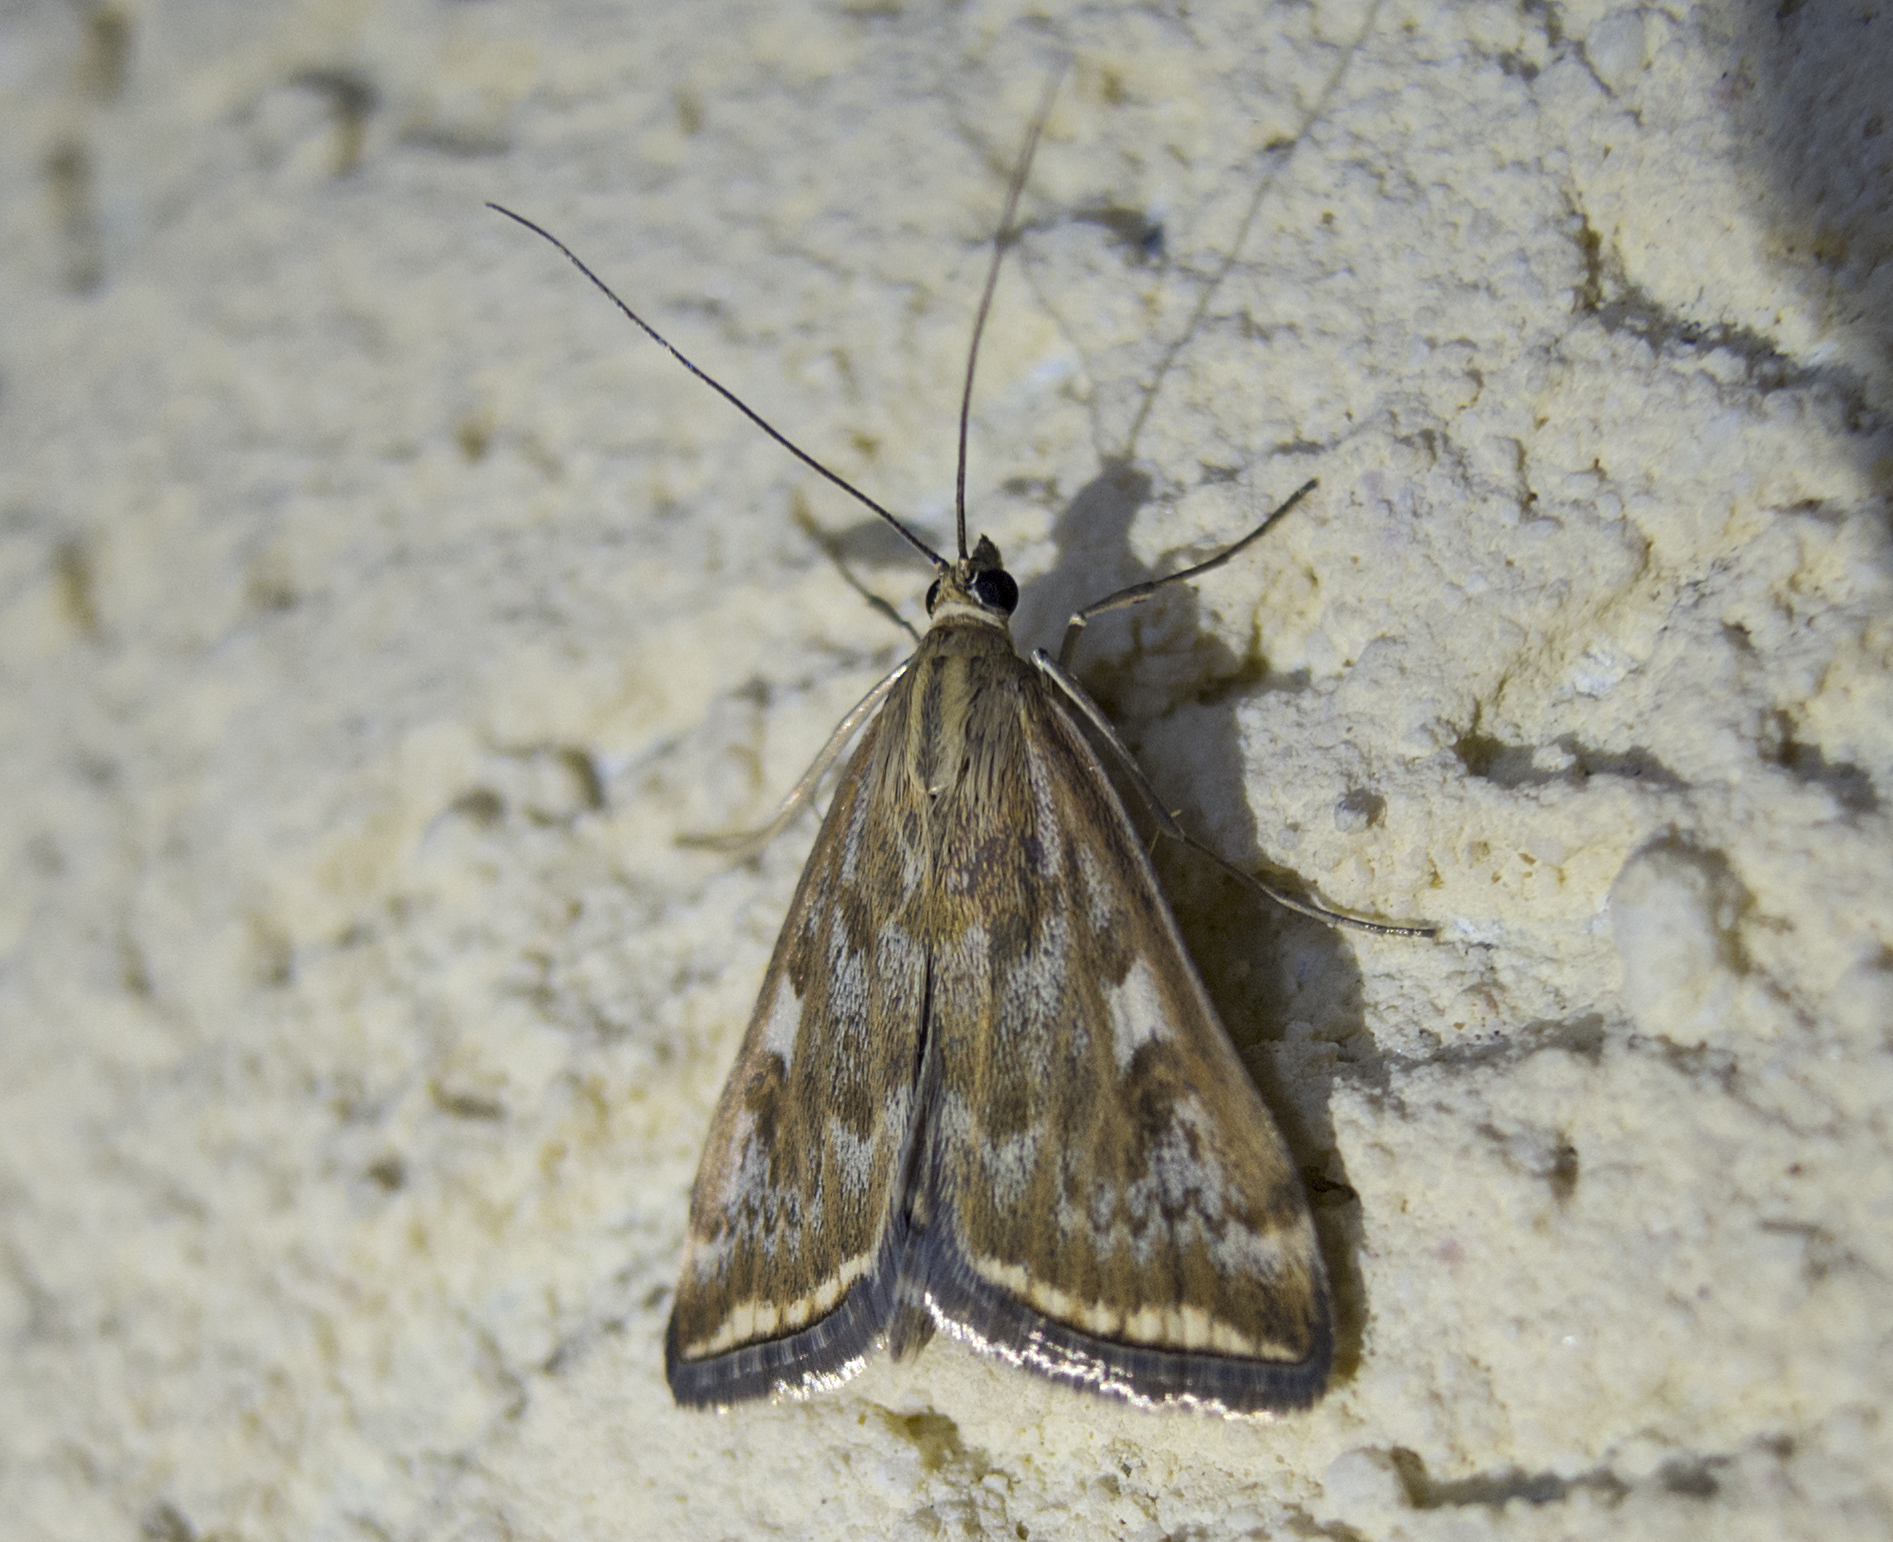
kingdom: Animalia
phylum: Arthropoda
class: Insecta
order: Lepidoptera
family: Crambidae
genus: Loxostege
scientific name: Loxostege sticticalis
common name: Crambid moth
